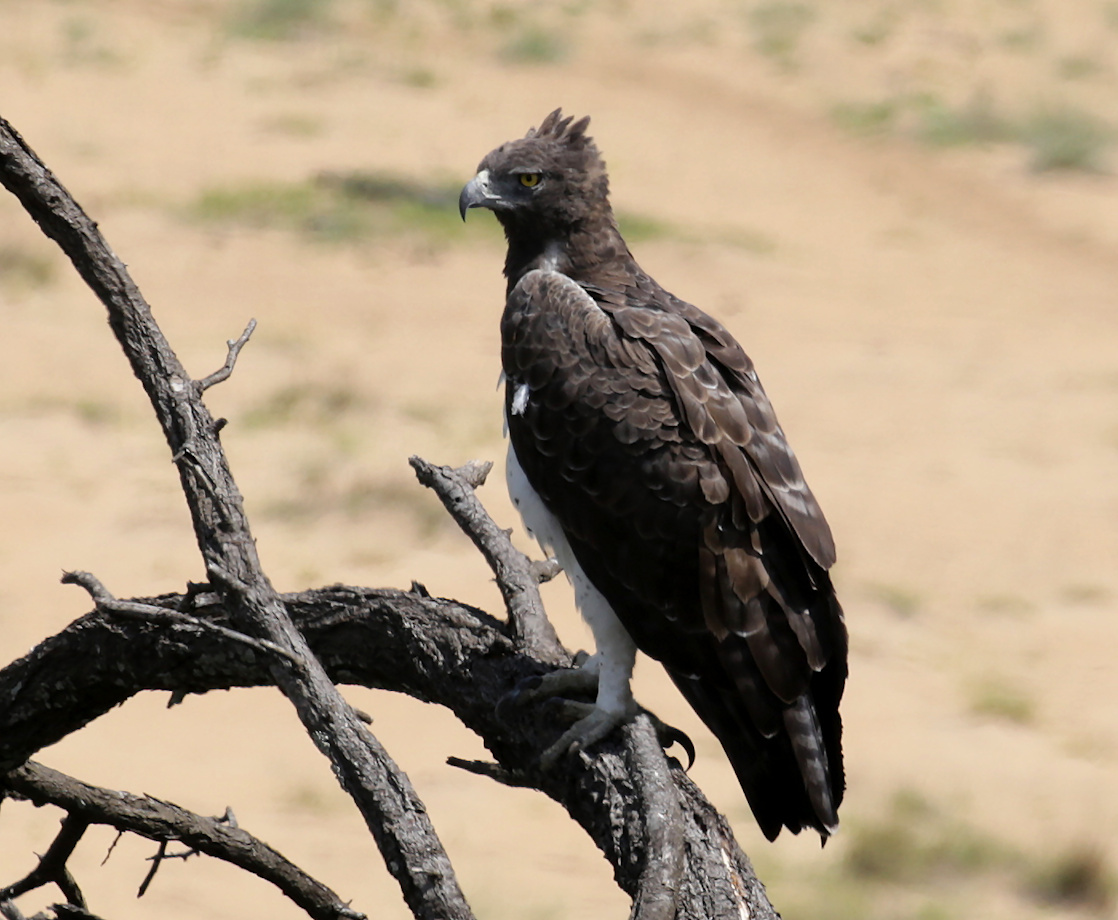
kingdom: Animalia
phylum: Chordata
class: Aves
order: Accipitriformes
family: Accipitridae
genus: Polemaetus
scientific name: Polemaetus bellicosus
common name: Martial eagle
